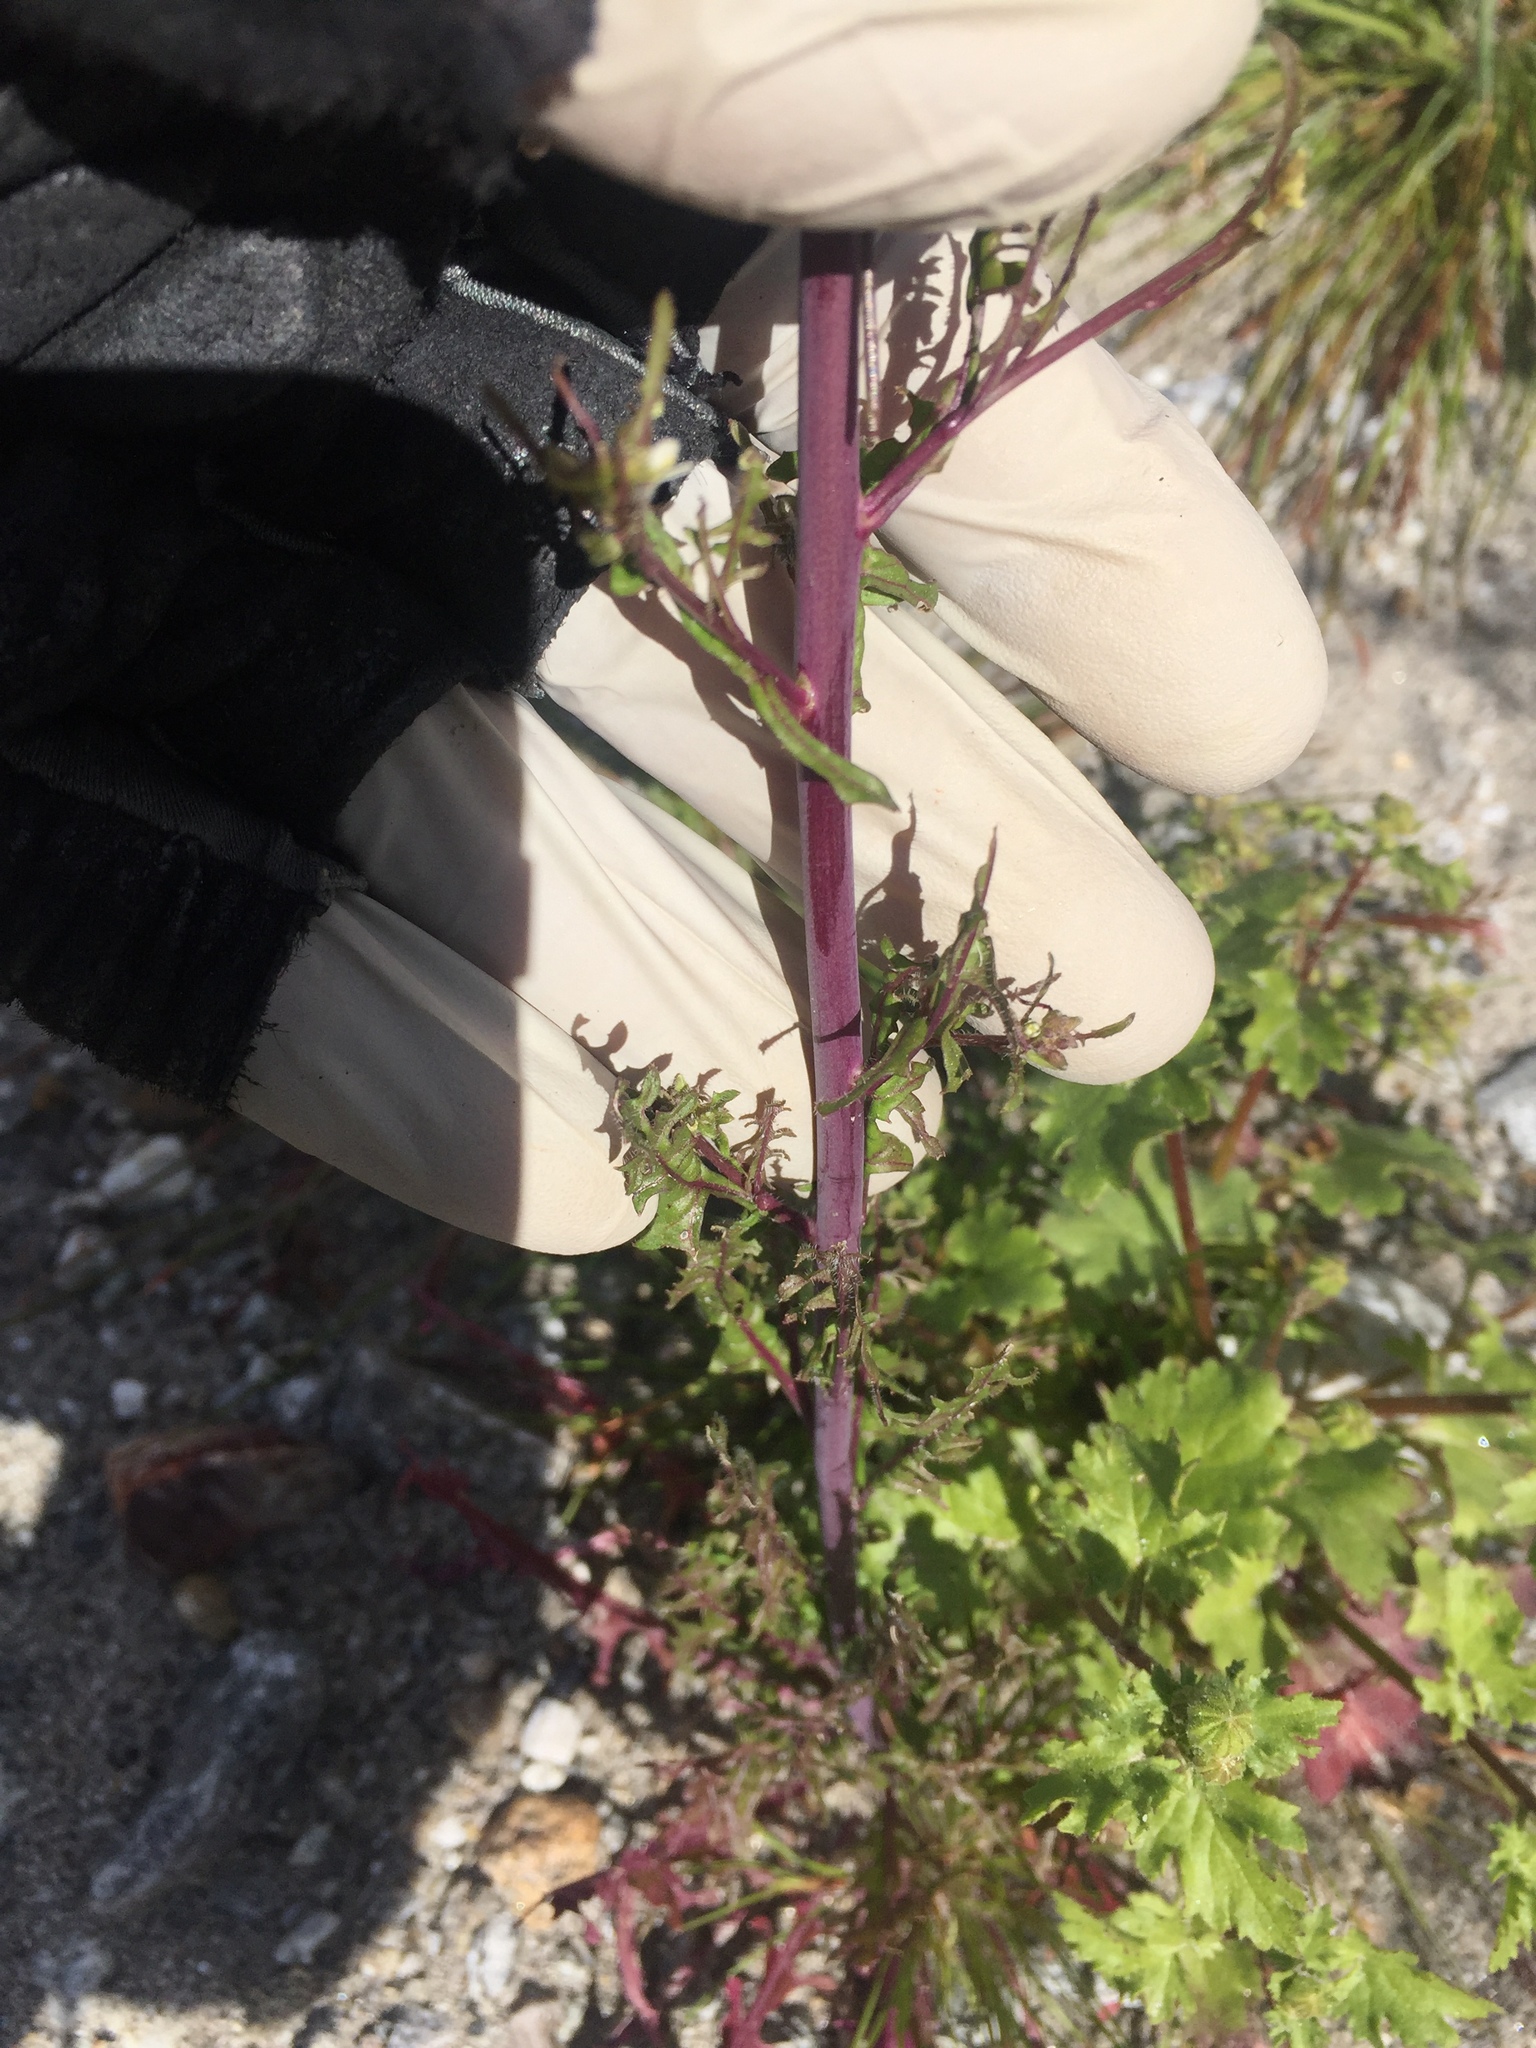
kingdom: Plantae
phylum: Tracheophyta
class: Magnoliopsida
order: Brassicales
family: Brassicaceae
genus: Streptanthus
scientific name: Streptanthus lasiophyllus
